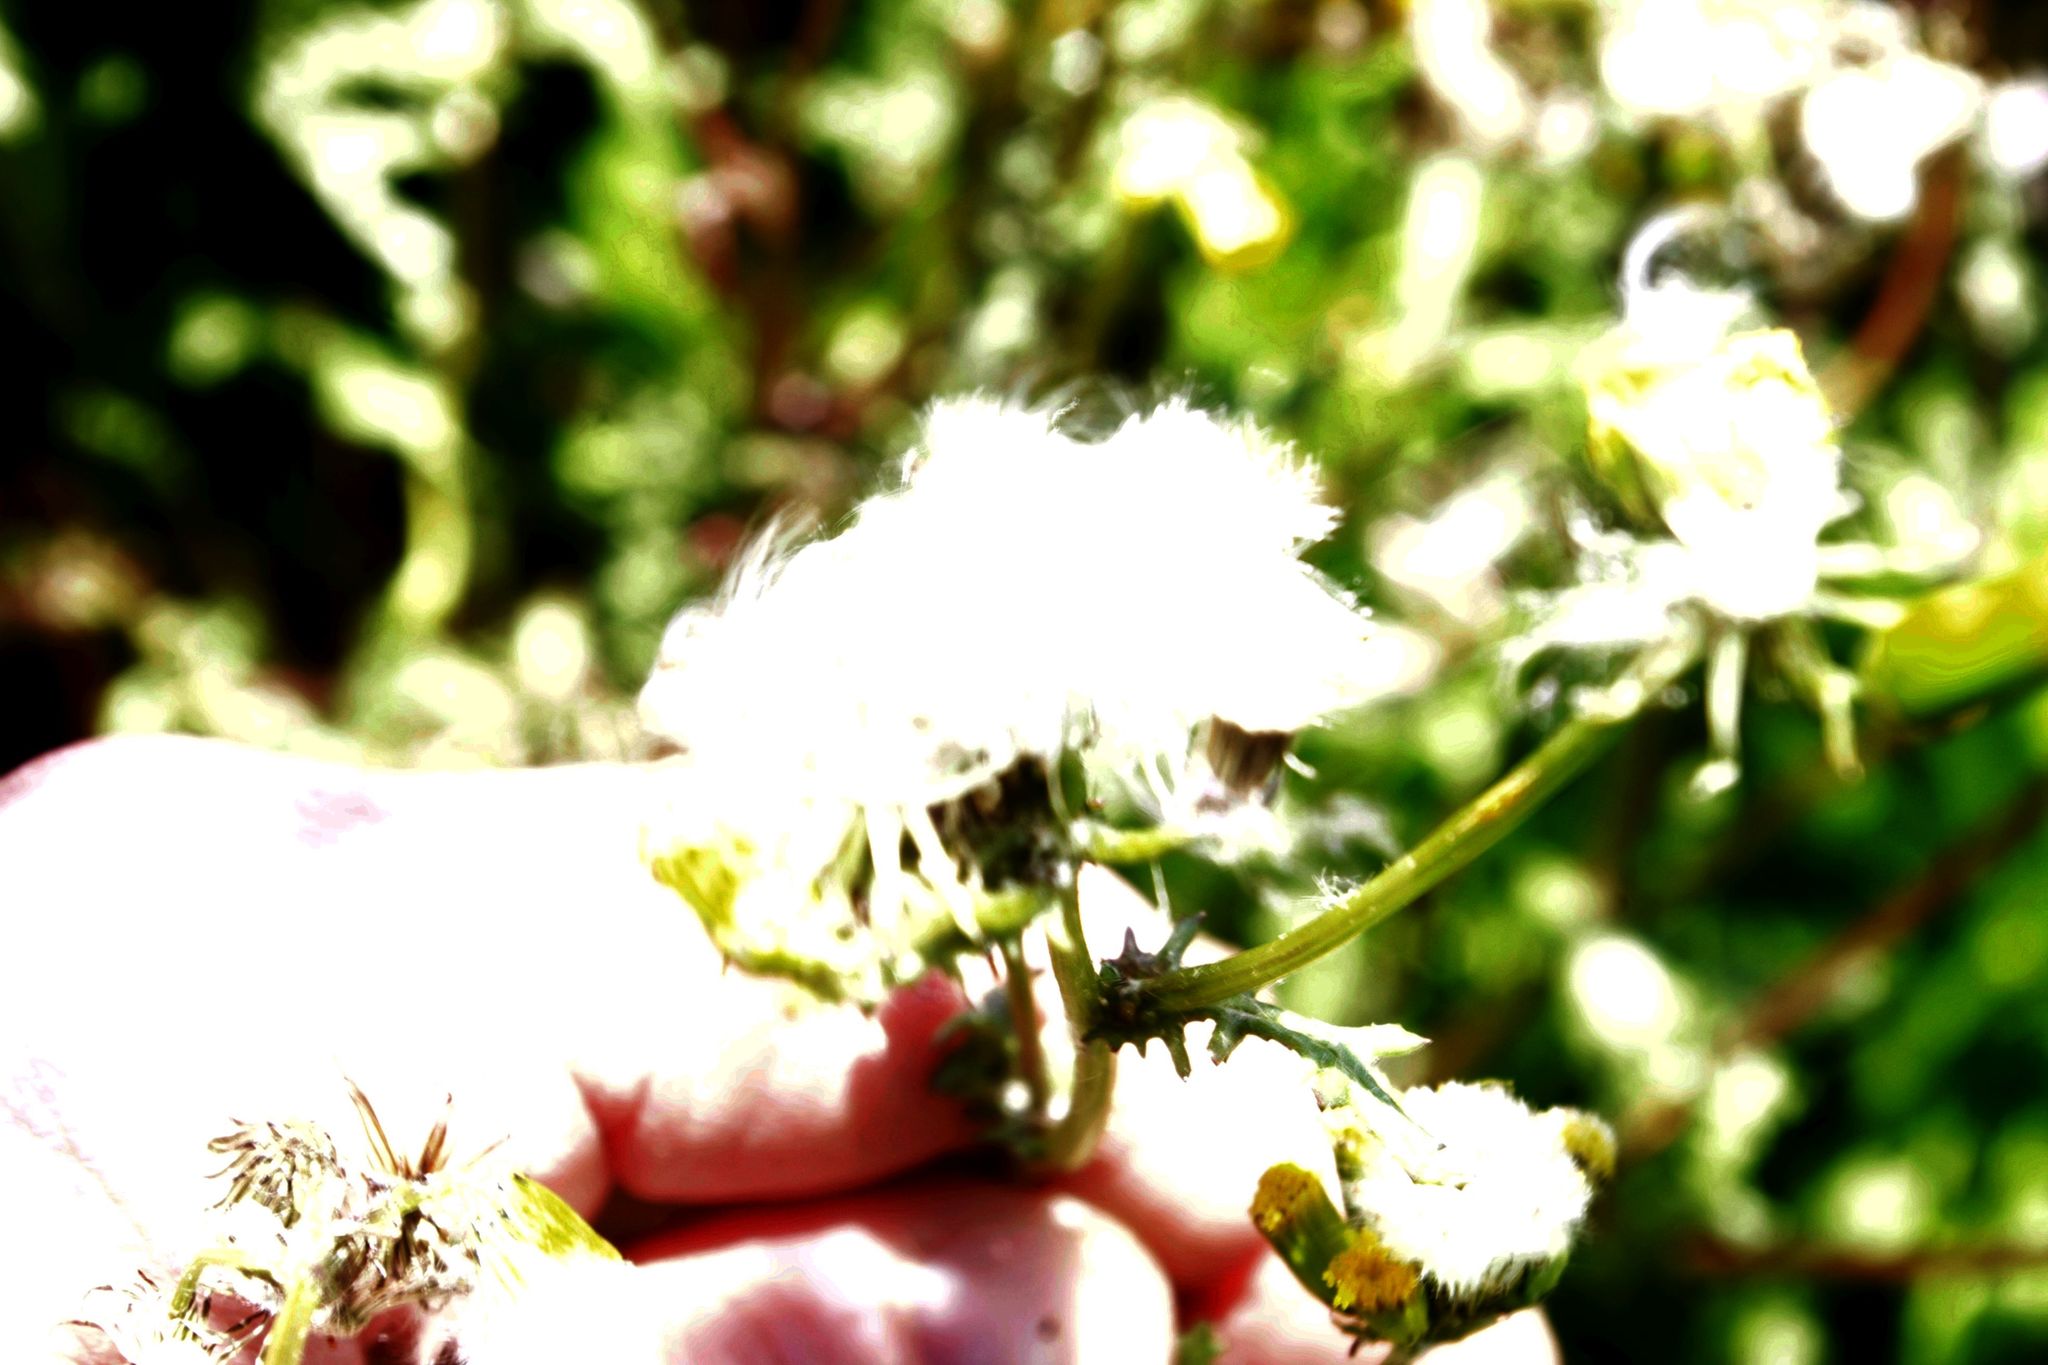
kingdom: Plantae
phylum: Tracheophyta
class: Magnoliopsida
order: Asterales
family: Asteraceae
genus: Senecio
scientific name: Senecio vulgaris
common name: Old-man-in-the-spring
